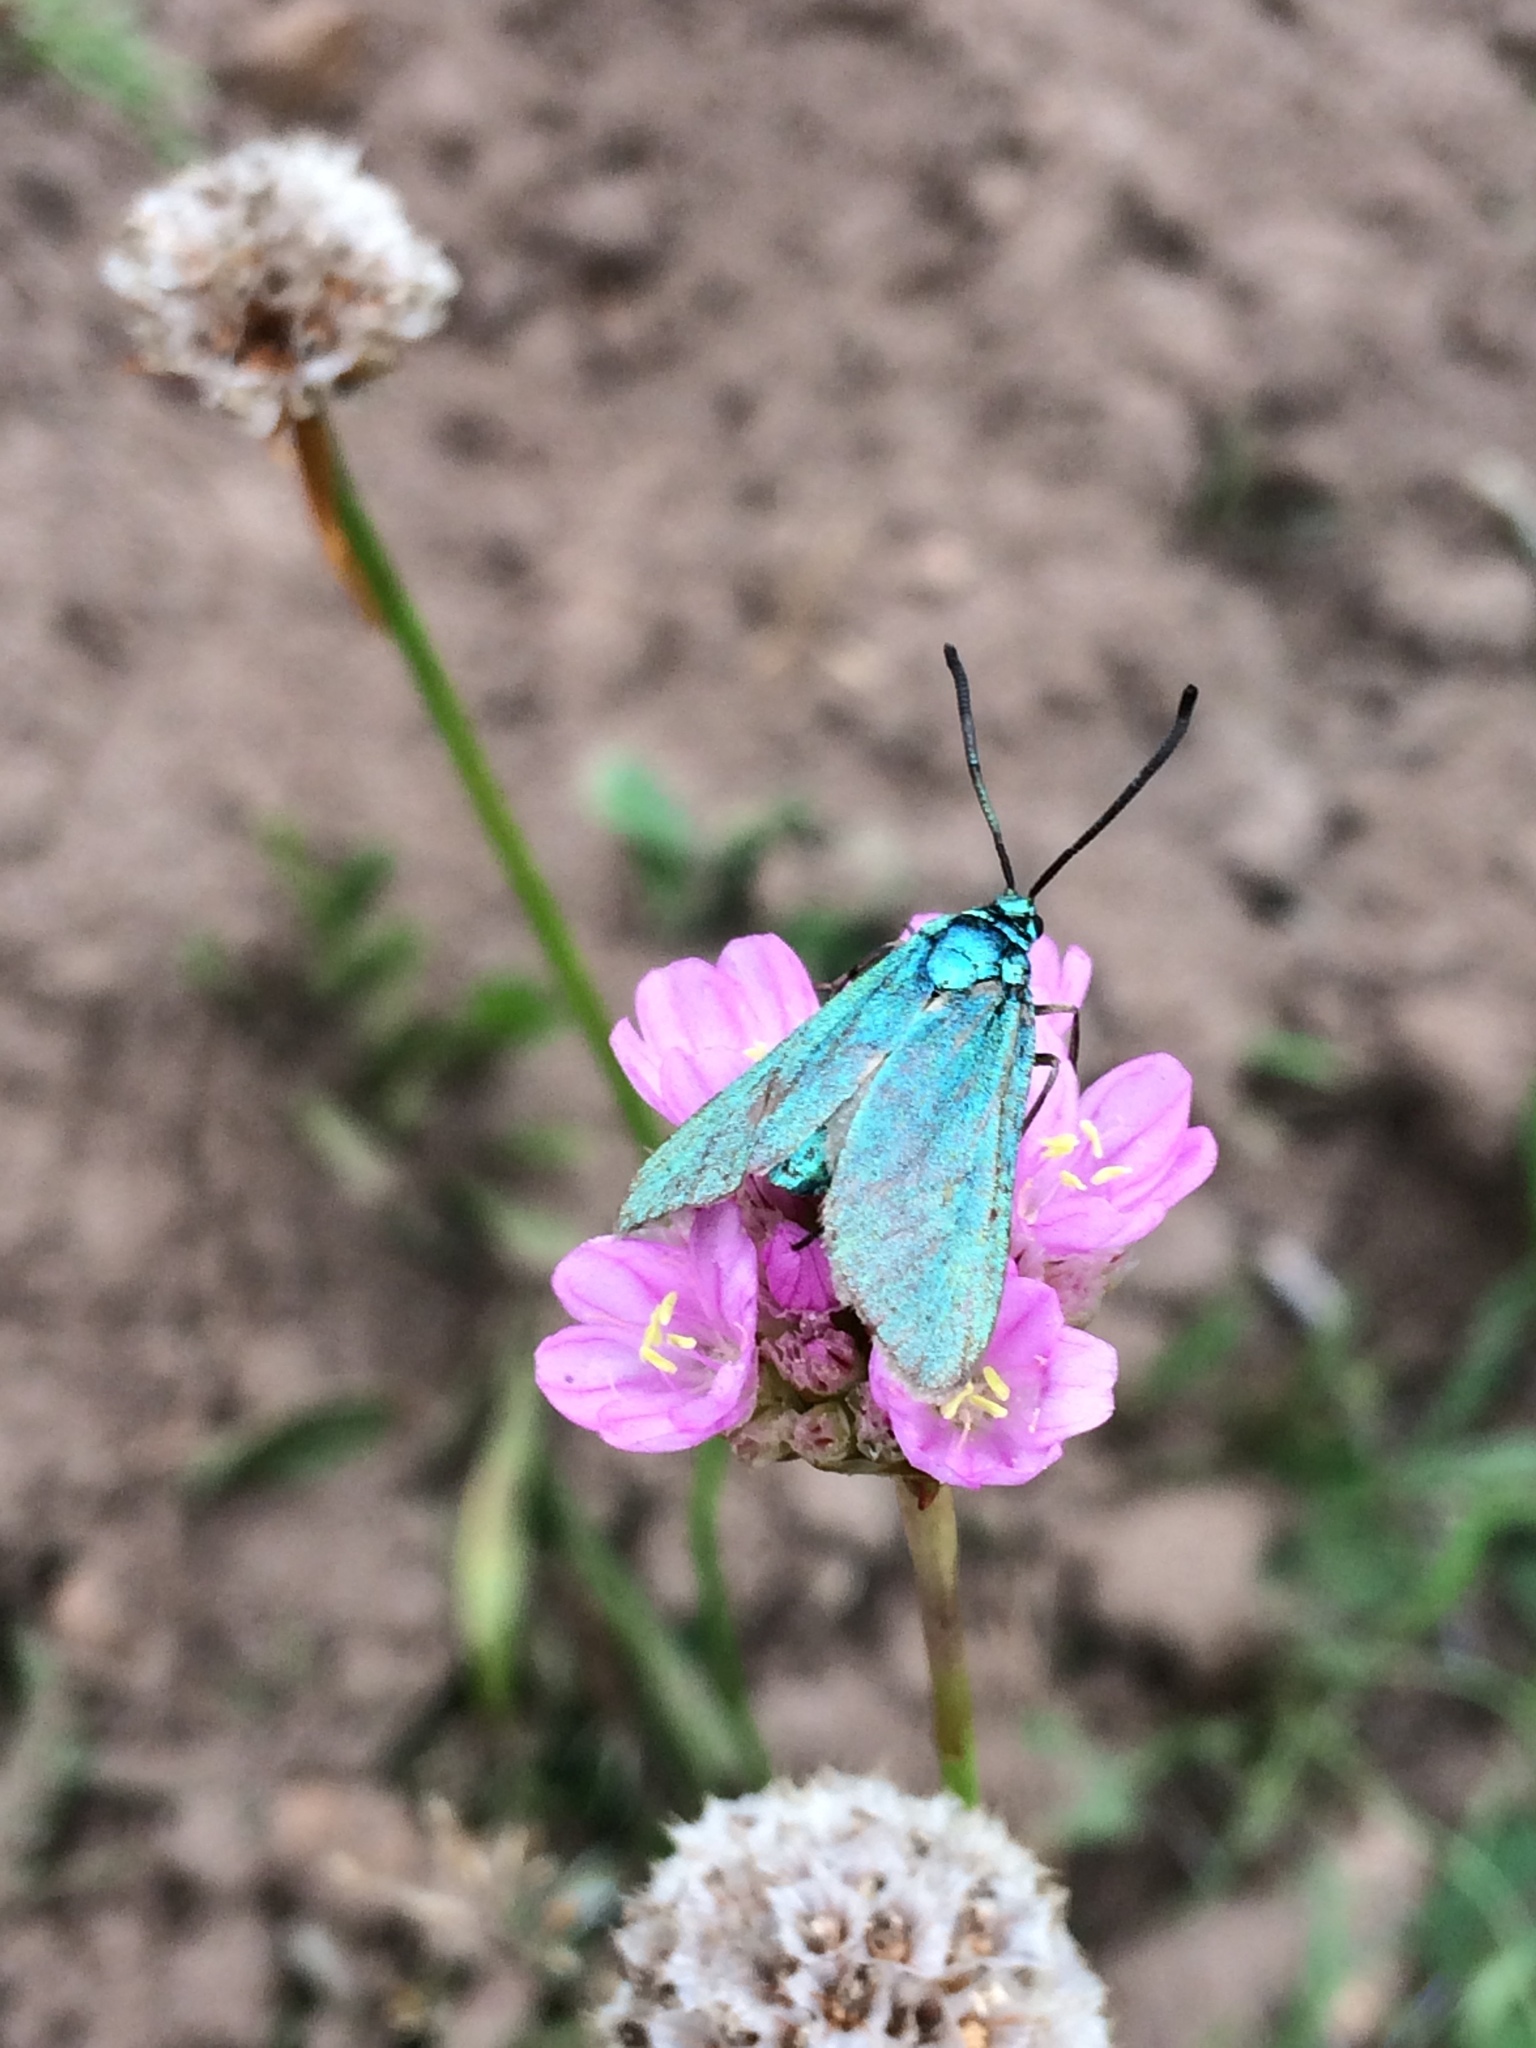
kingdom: Animalia
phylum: Arthropoda
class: Insecta
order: Lepidoptera
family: Zygaenidae
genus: Adscita
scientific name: Adscita statices
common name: Forester
